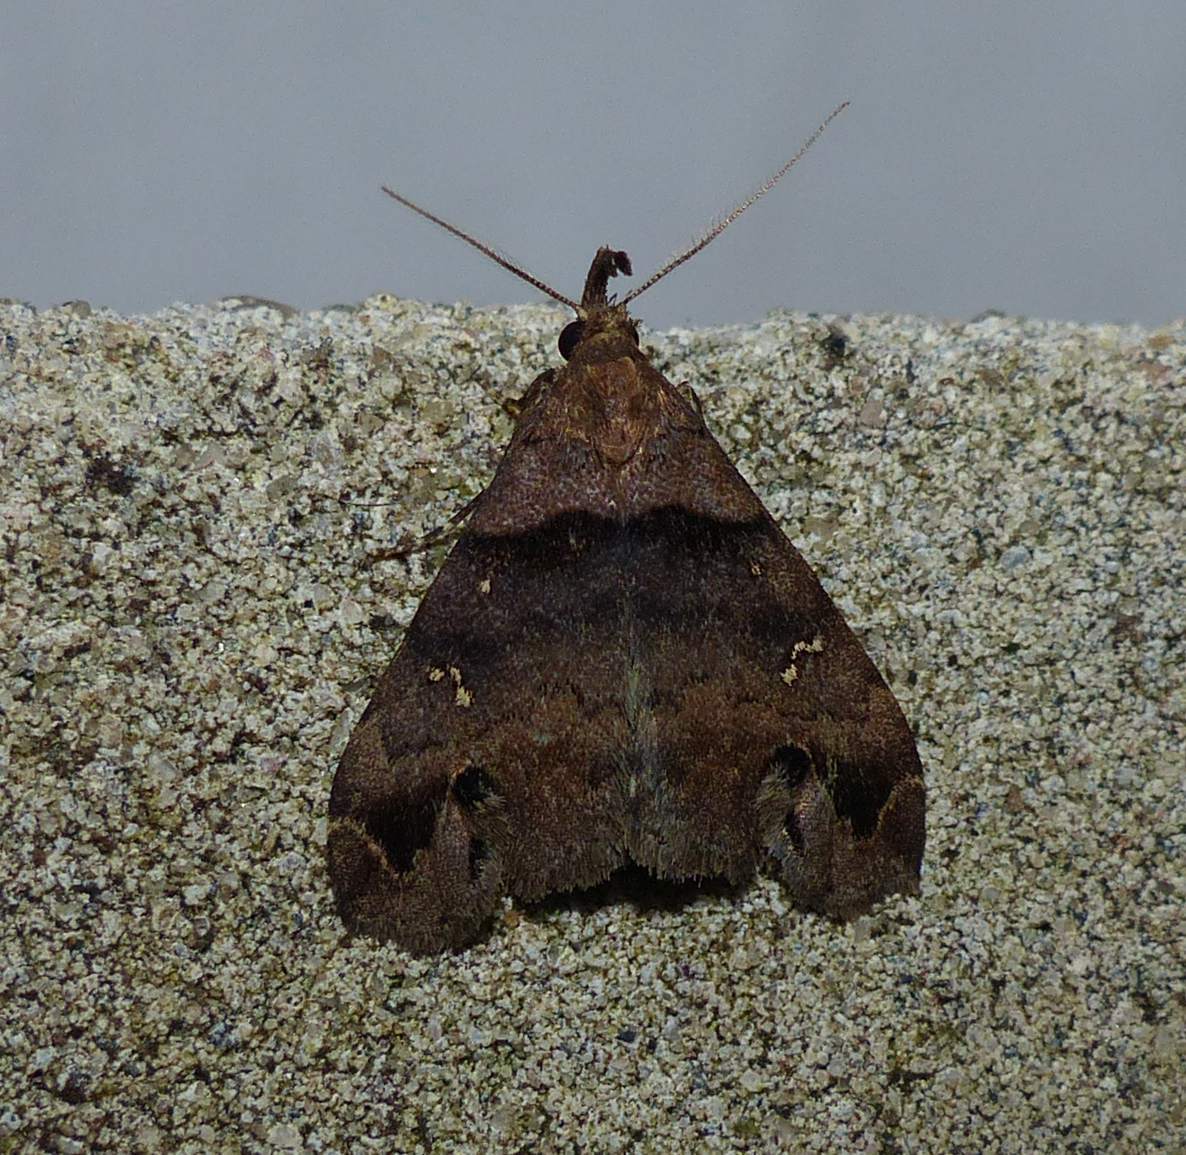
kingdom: Animalia
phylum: Arthropoda
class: Insecta
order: Lepidoptera
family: Erebidae
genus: Lascoria
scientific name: Lascoria ambigualis
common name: Ambiguous moth
